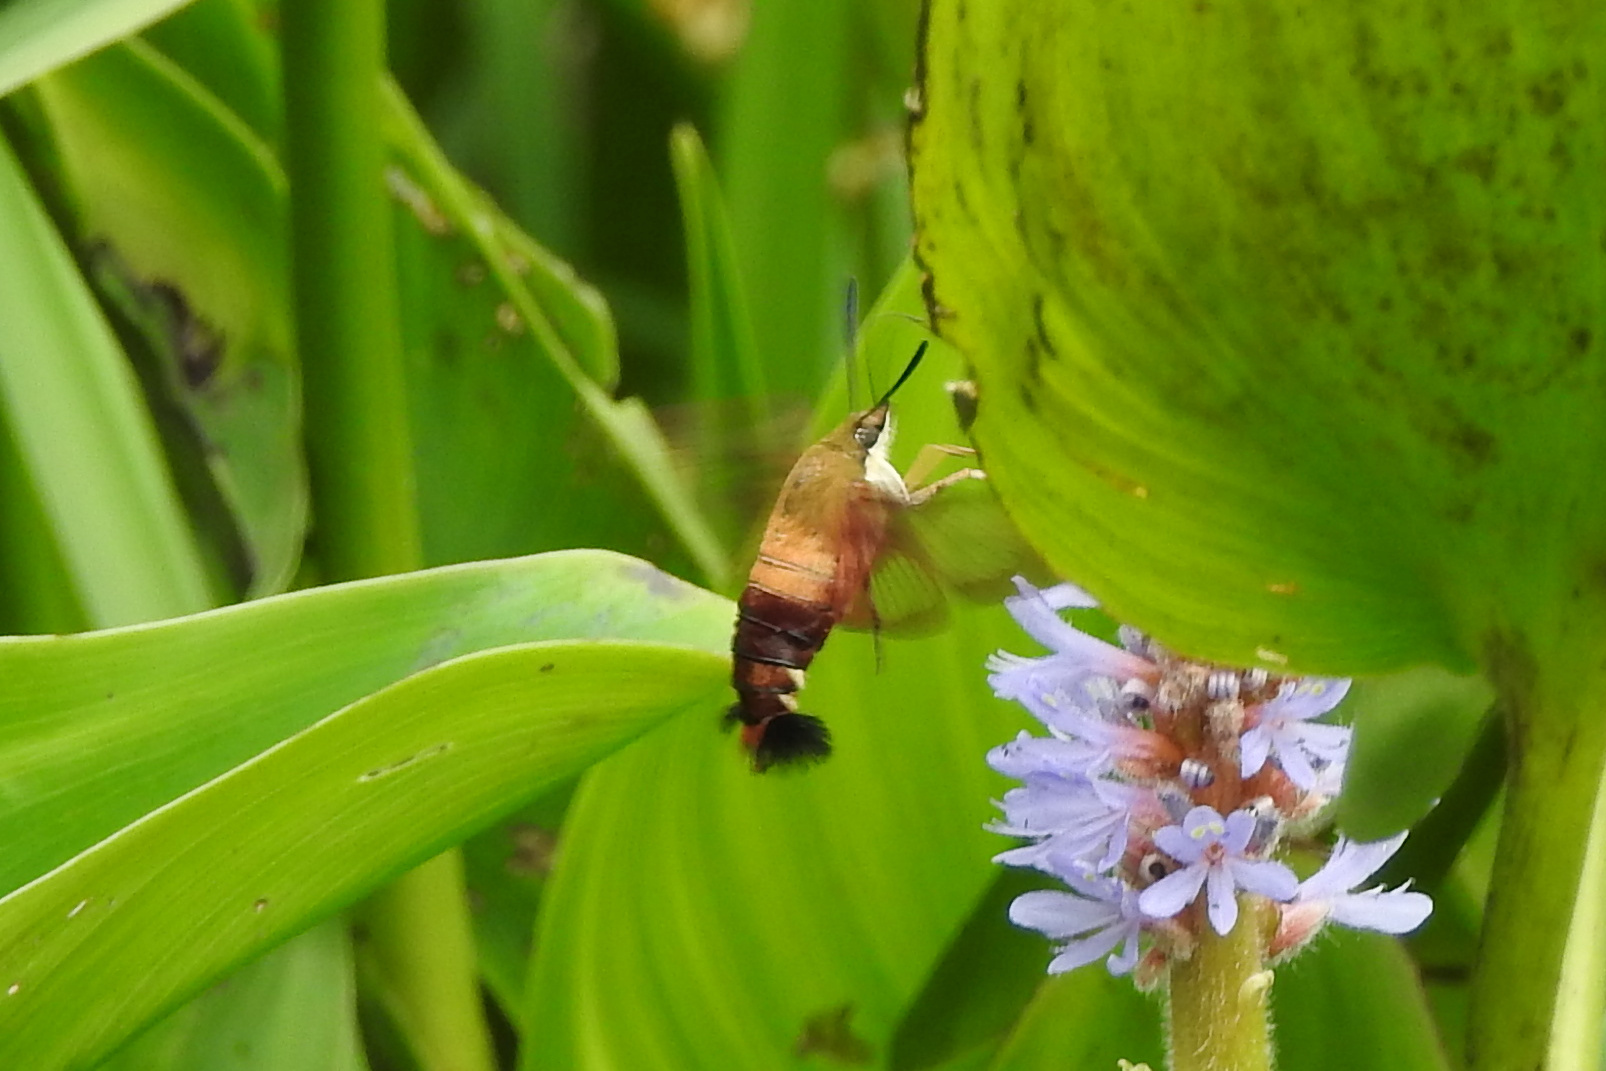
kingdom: Animalia
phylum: Arthropoda
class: Insecta
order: Lepidoptera
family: Sphingidae
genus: Hemaris
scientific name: Hemaris thysbe
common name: Common clear-wing
